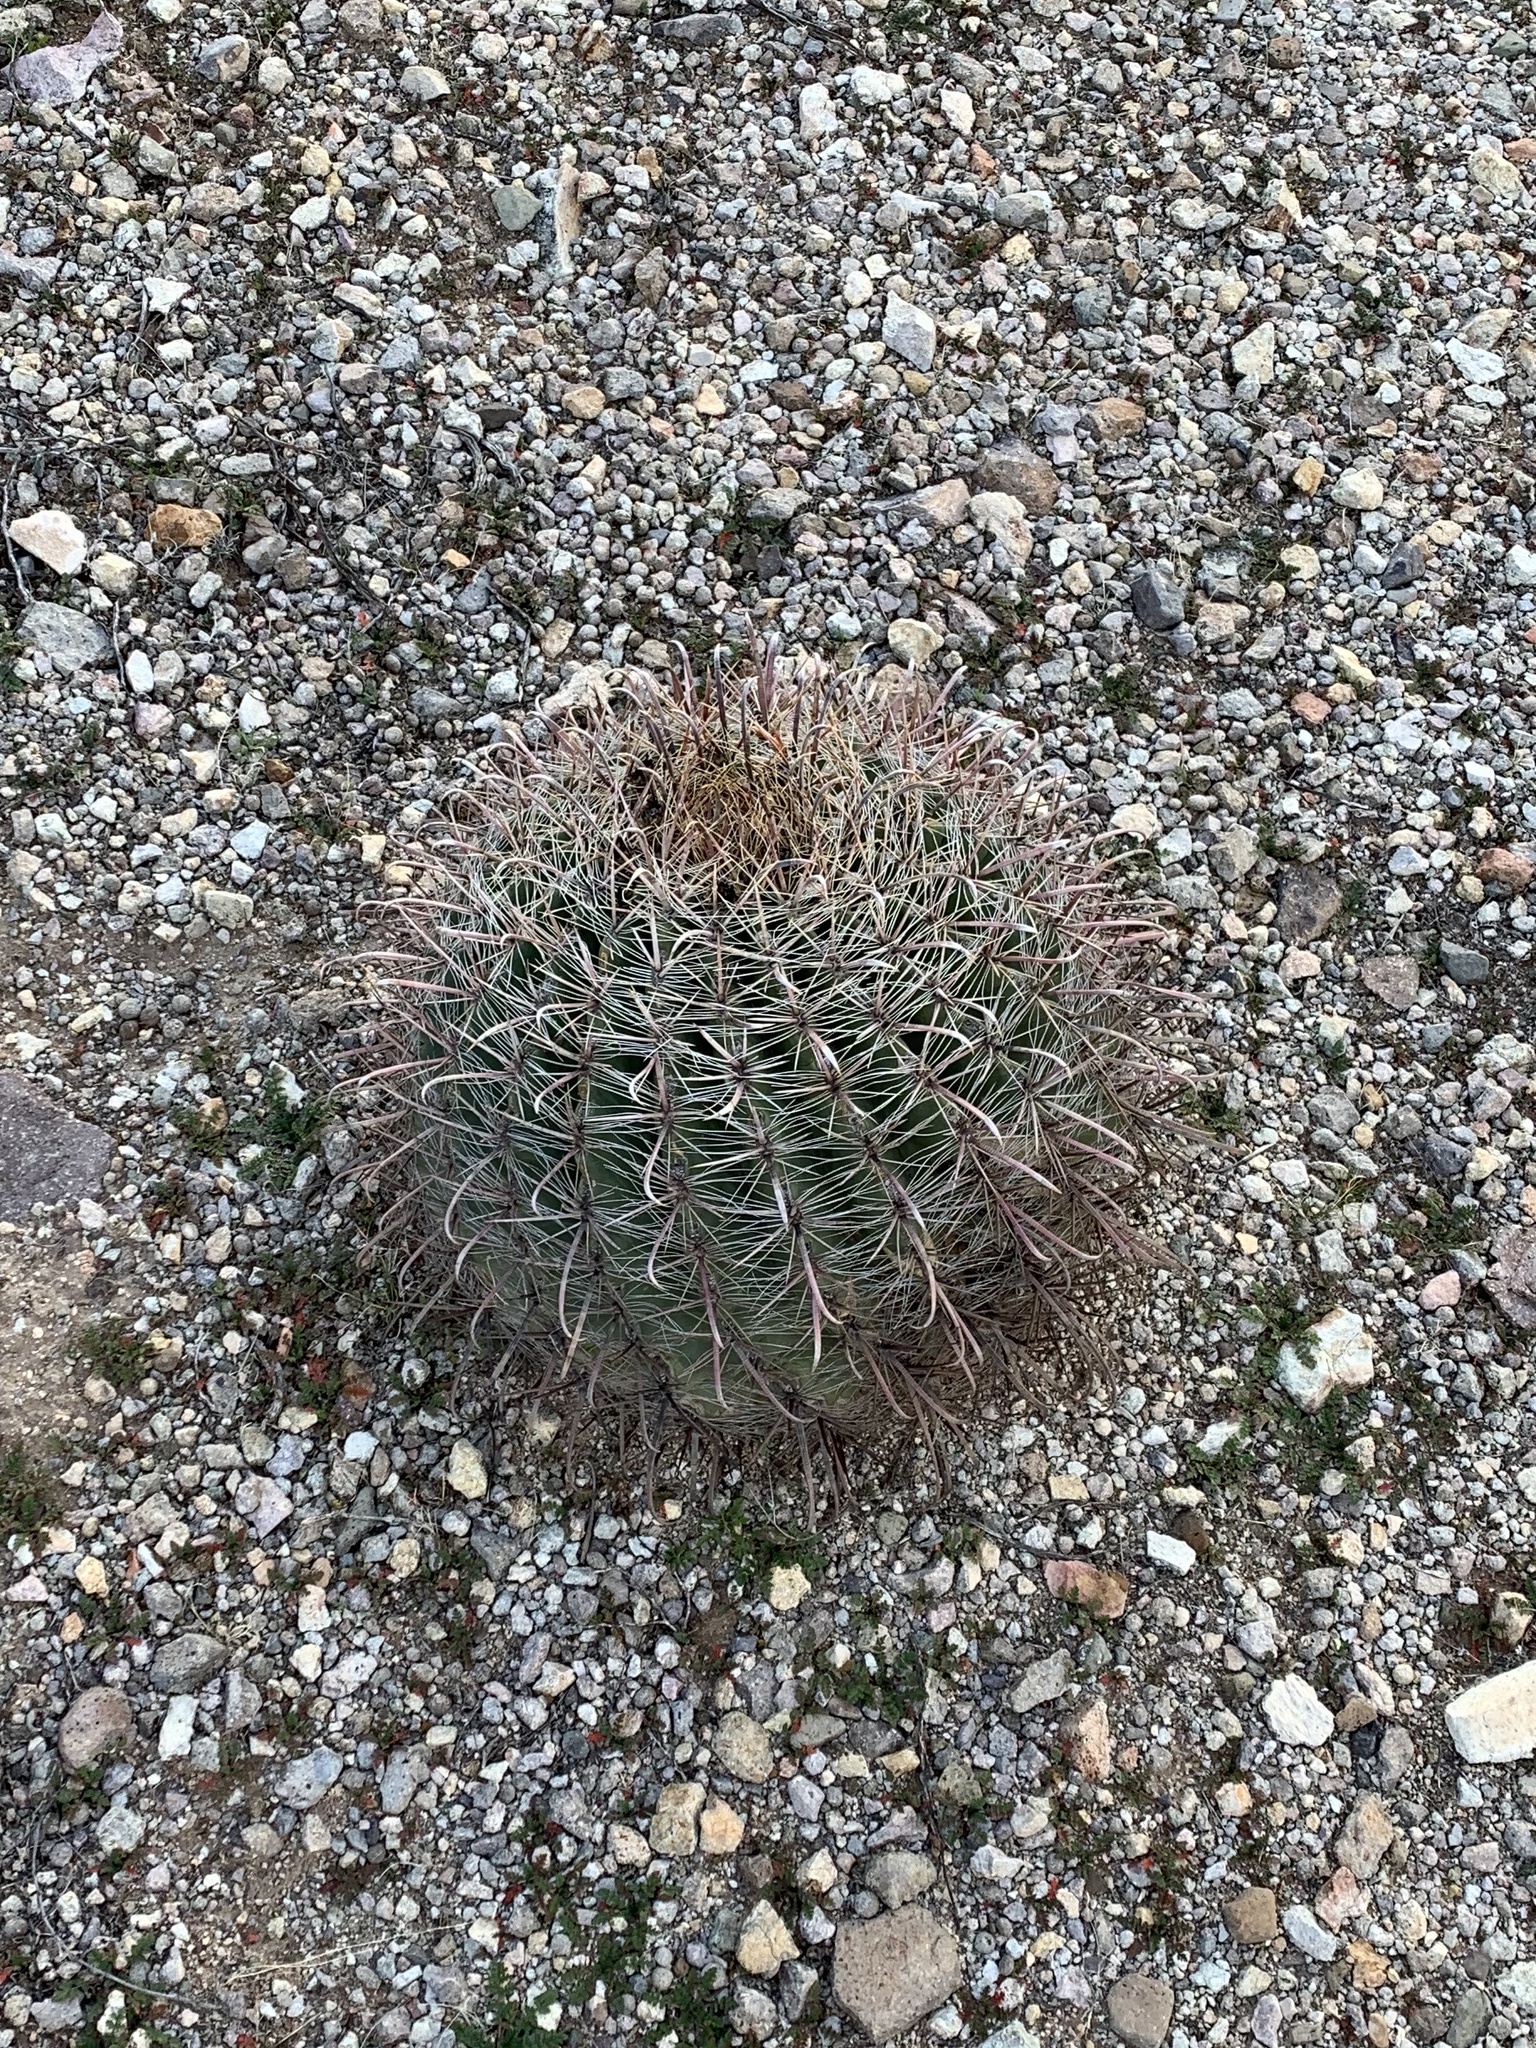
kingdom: Plantae
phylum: Tracheophyta
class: Magnoliopsida
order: Caryophyllales
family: Cactaceae
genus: Ferocactus
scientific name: Ferocactus wislizeni
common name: Candy barrel cactus
